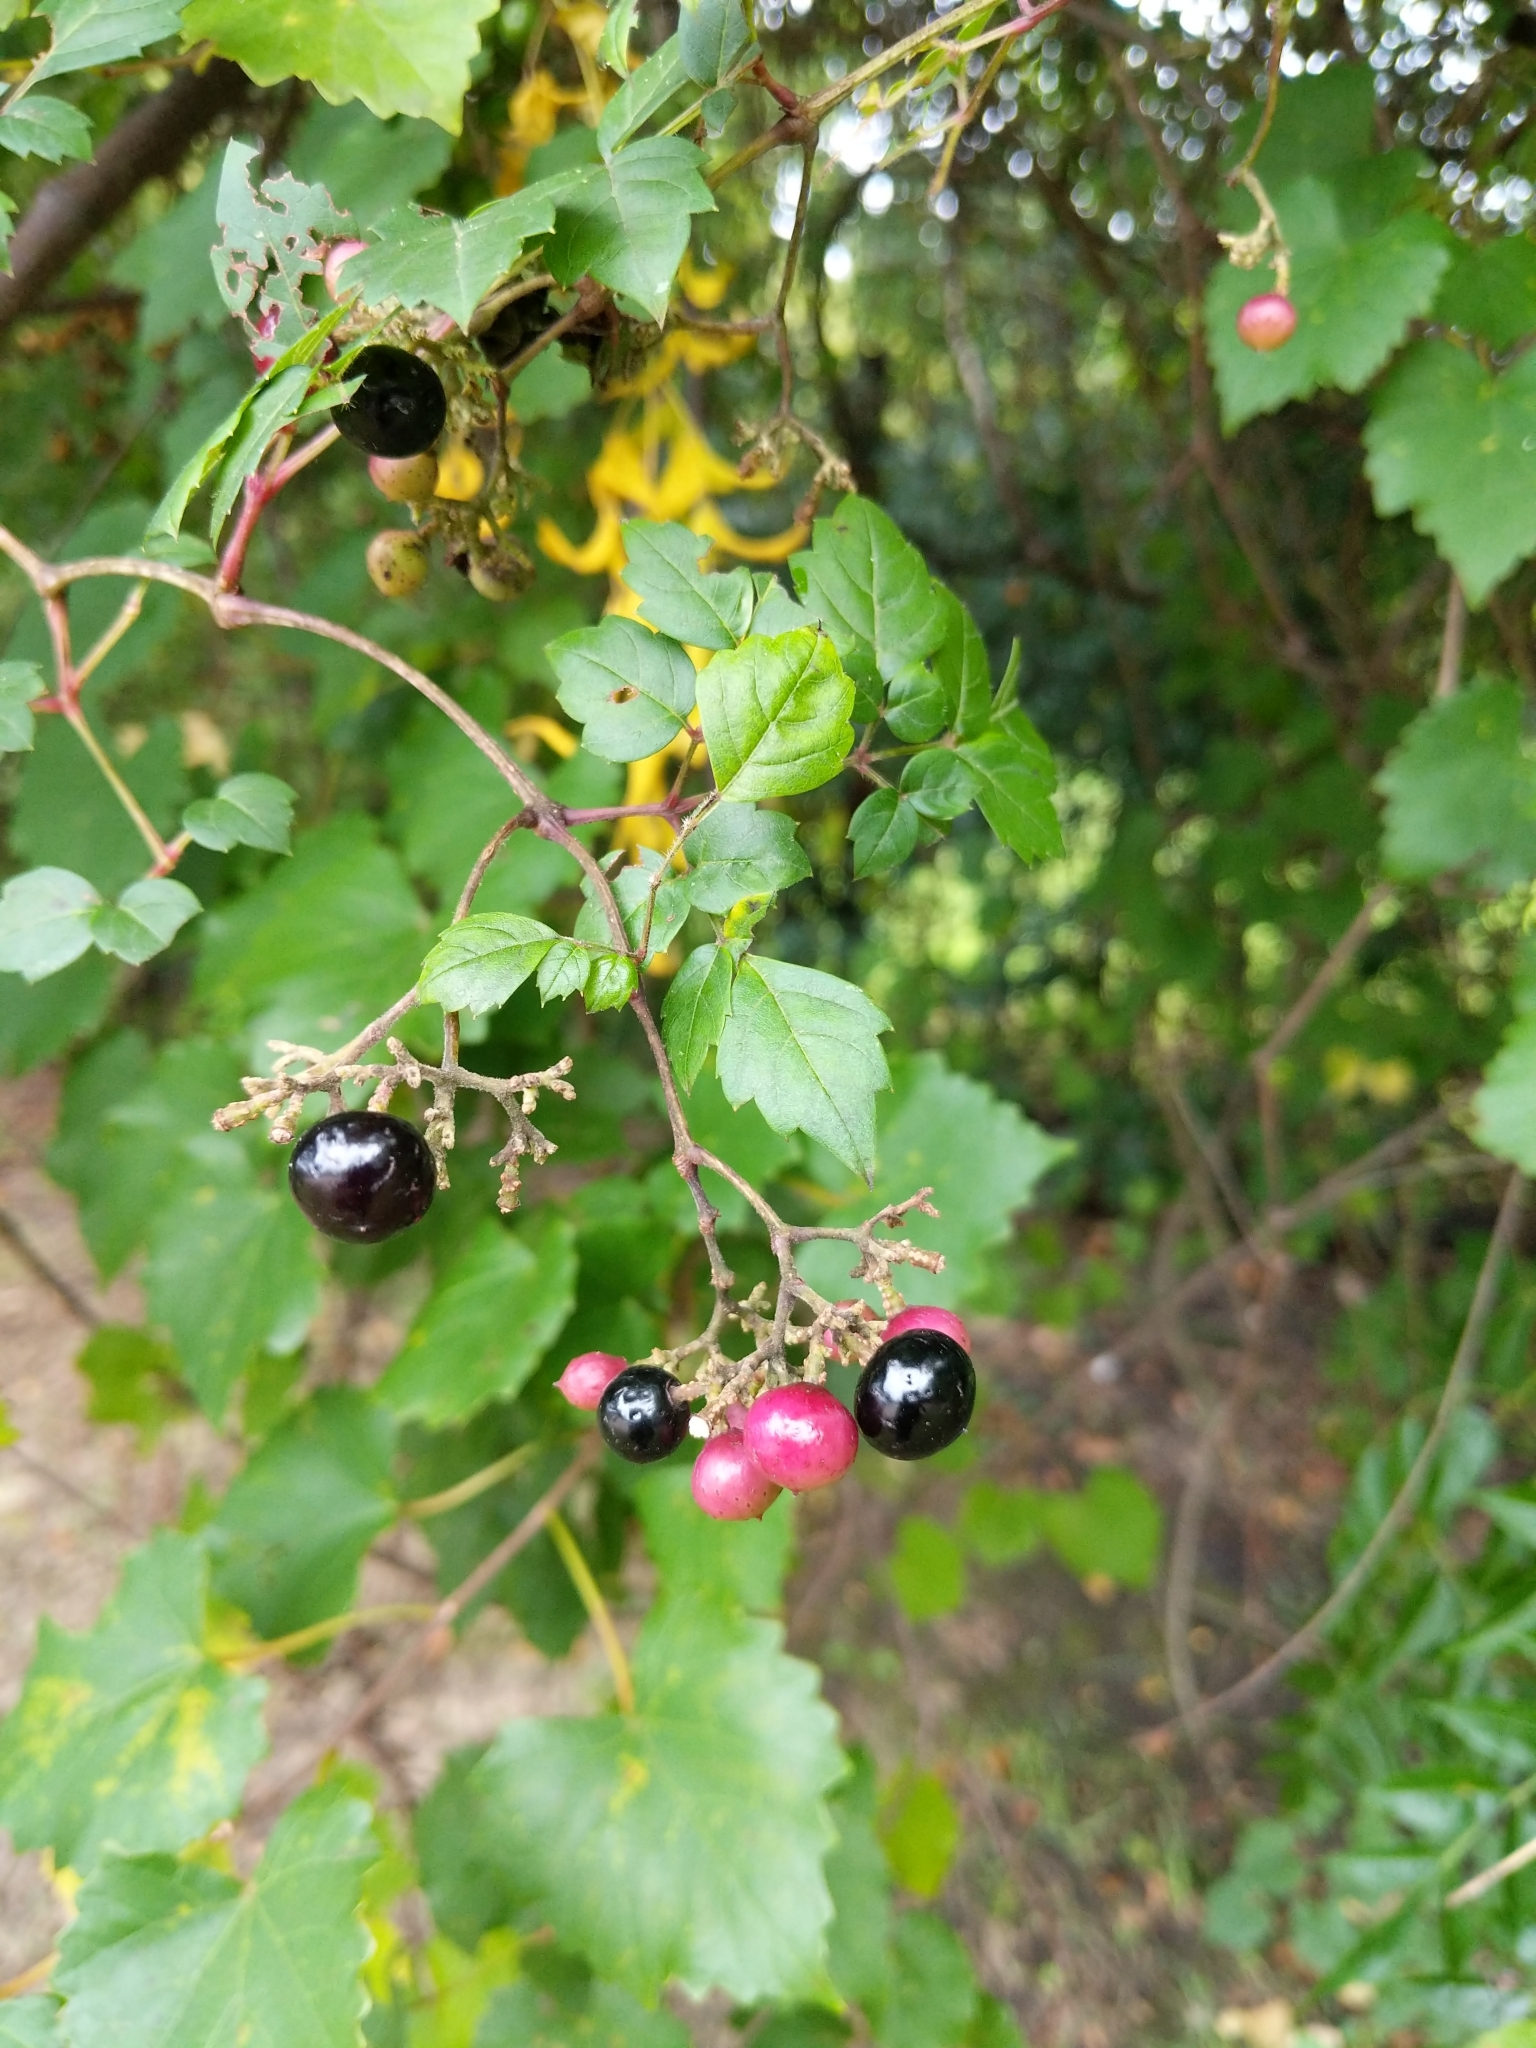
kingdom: Plantae
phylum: Tracheophyta
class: Magnoliopsida
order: Vitales
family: Vitaceae
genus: Nekemias
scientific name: Nekemias arborea
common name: Peppervine
